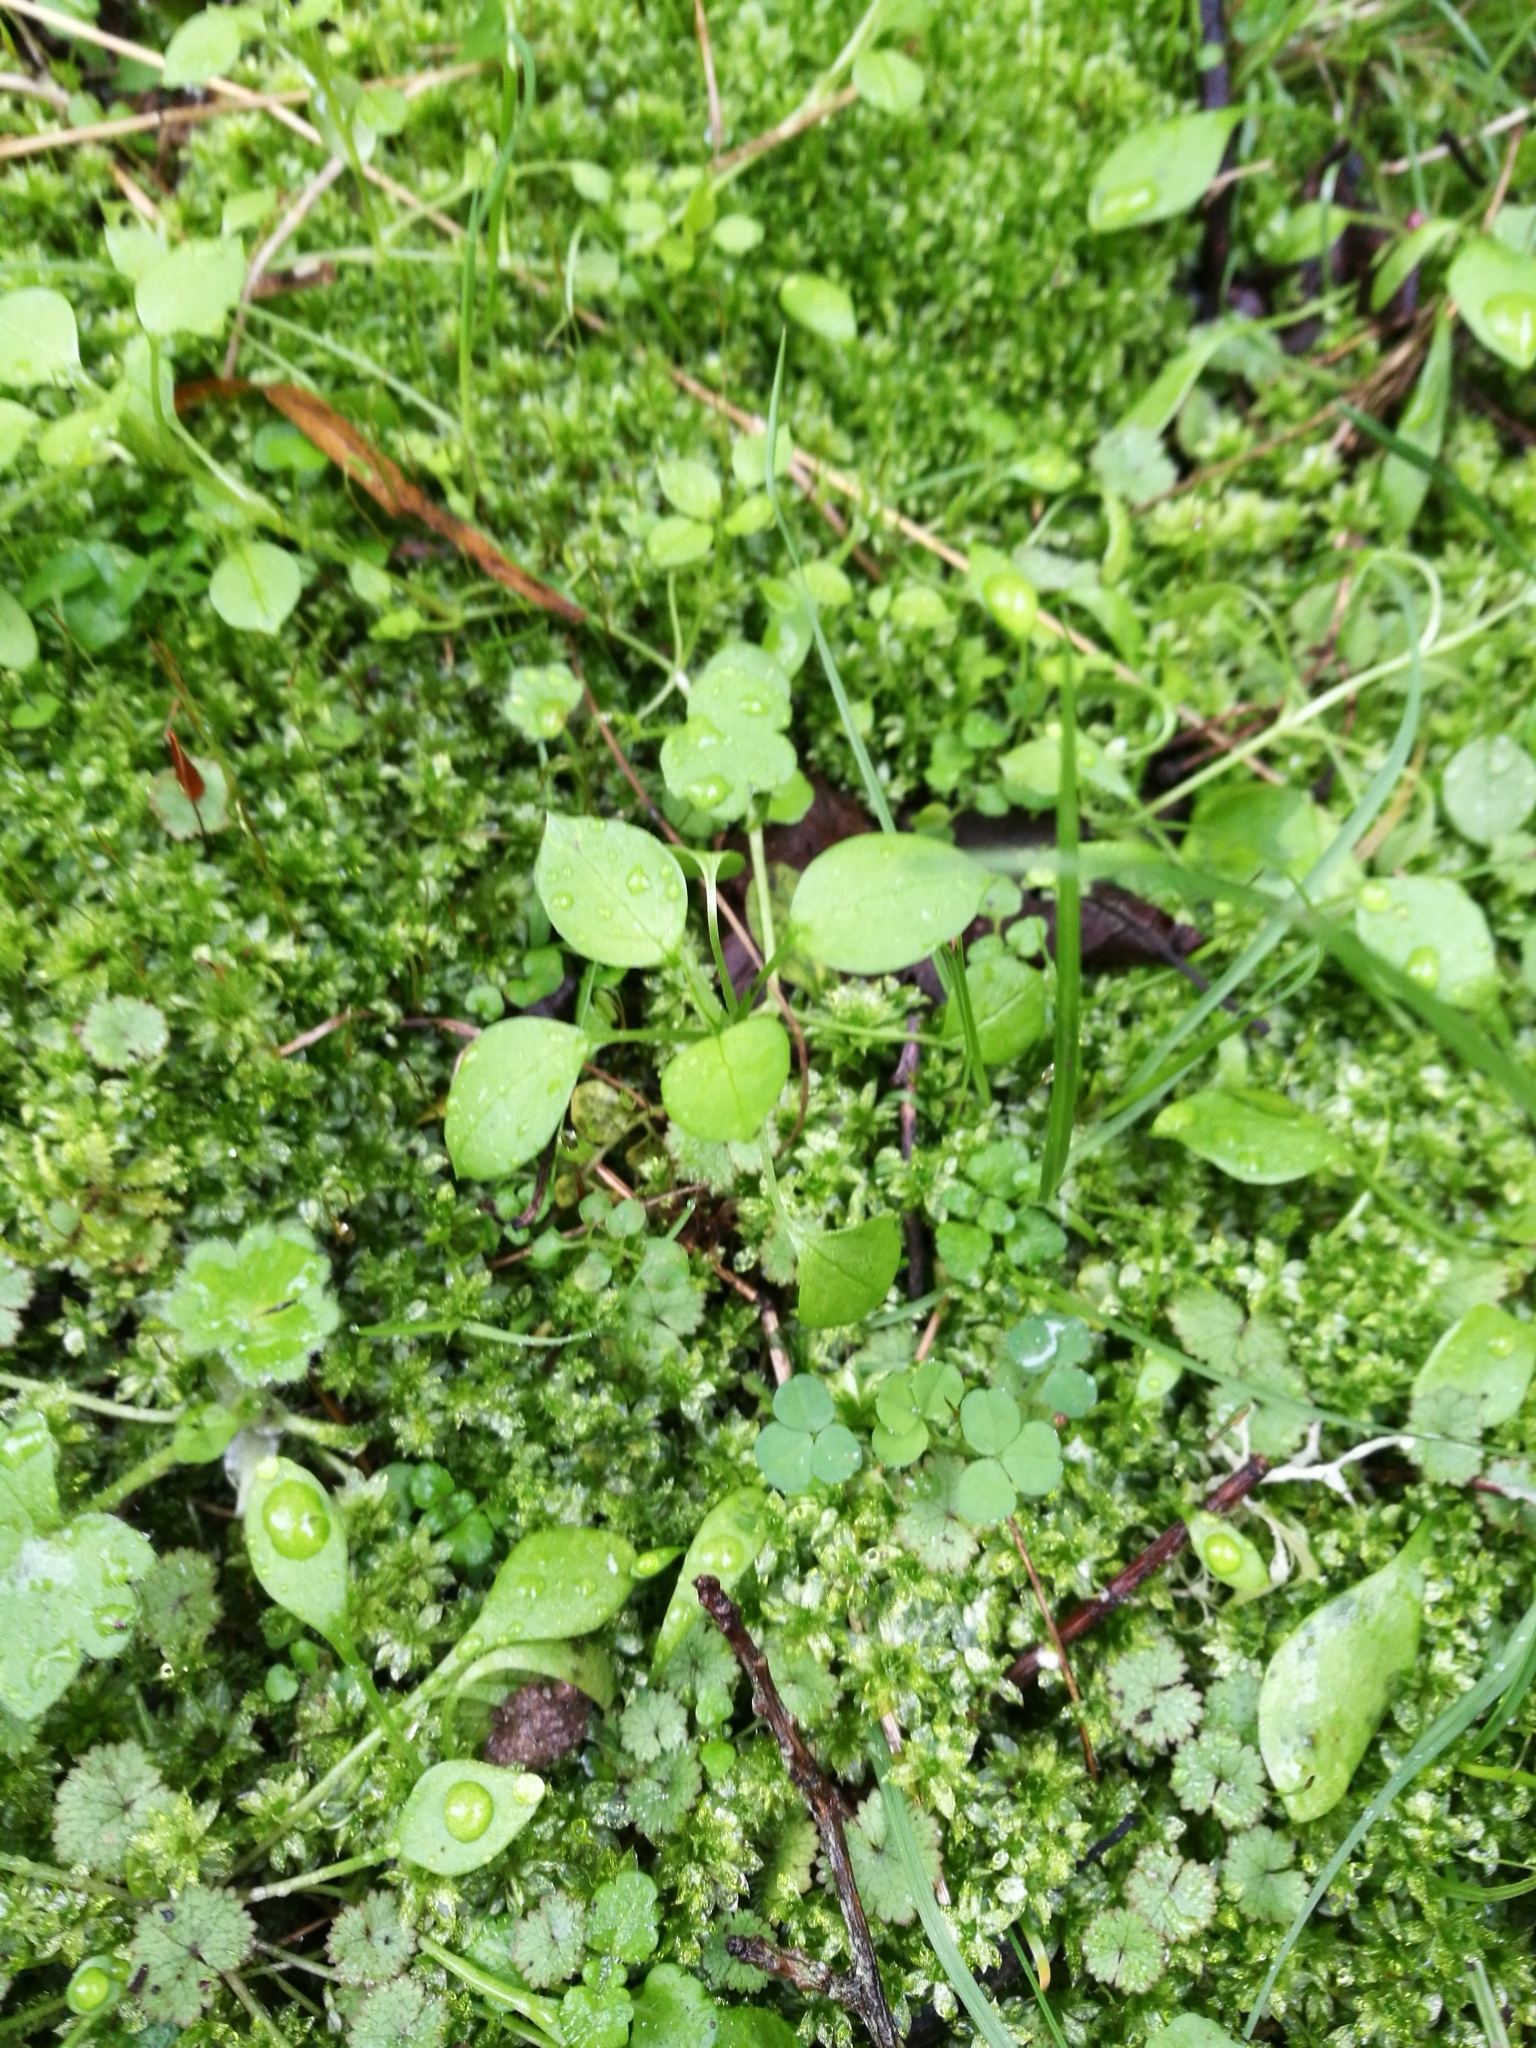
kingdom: Plantae
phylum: Tracheophyta
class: Magnoliopsida
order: Caryophyllales
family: Caryophyllaceae
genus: Stellaria
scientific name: Stellaria media
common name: Common chickweed
